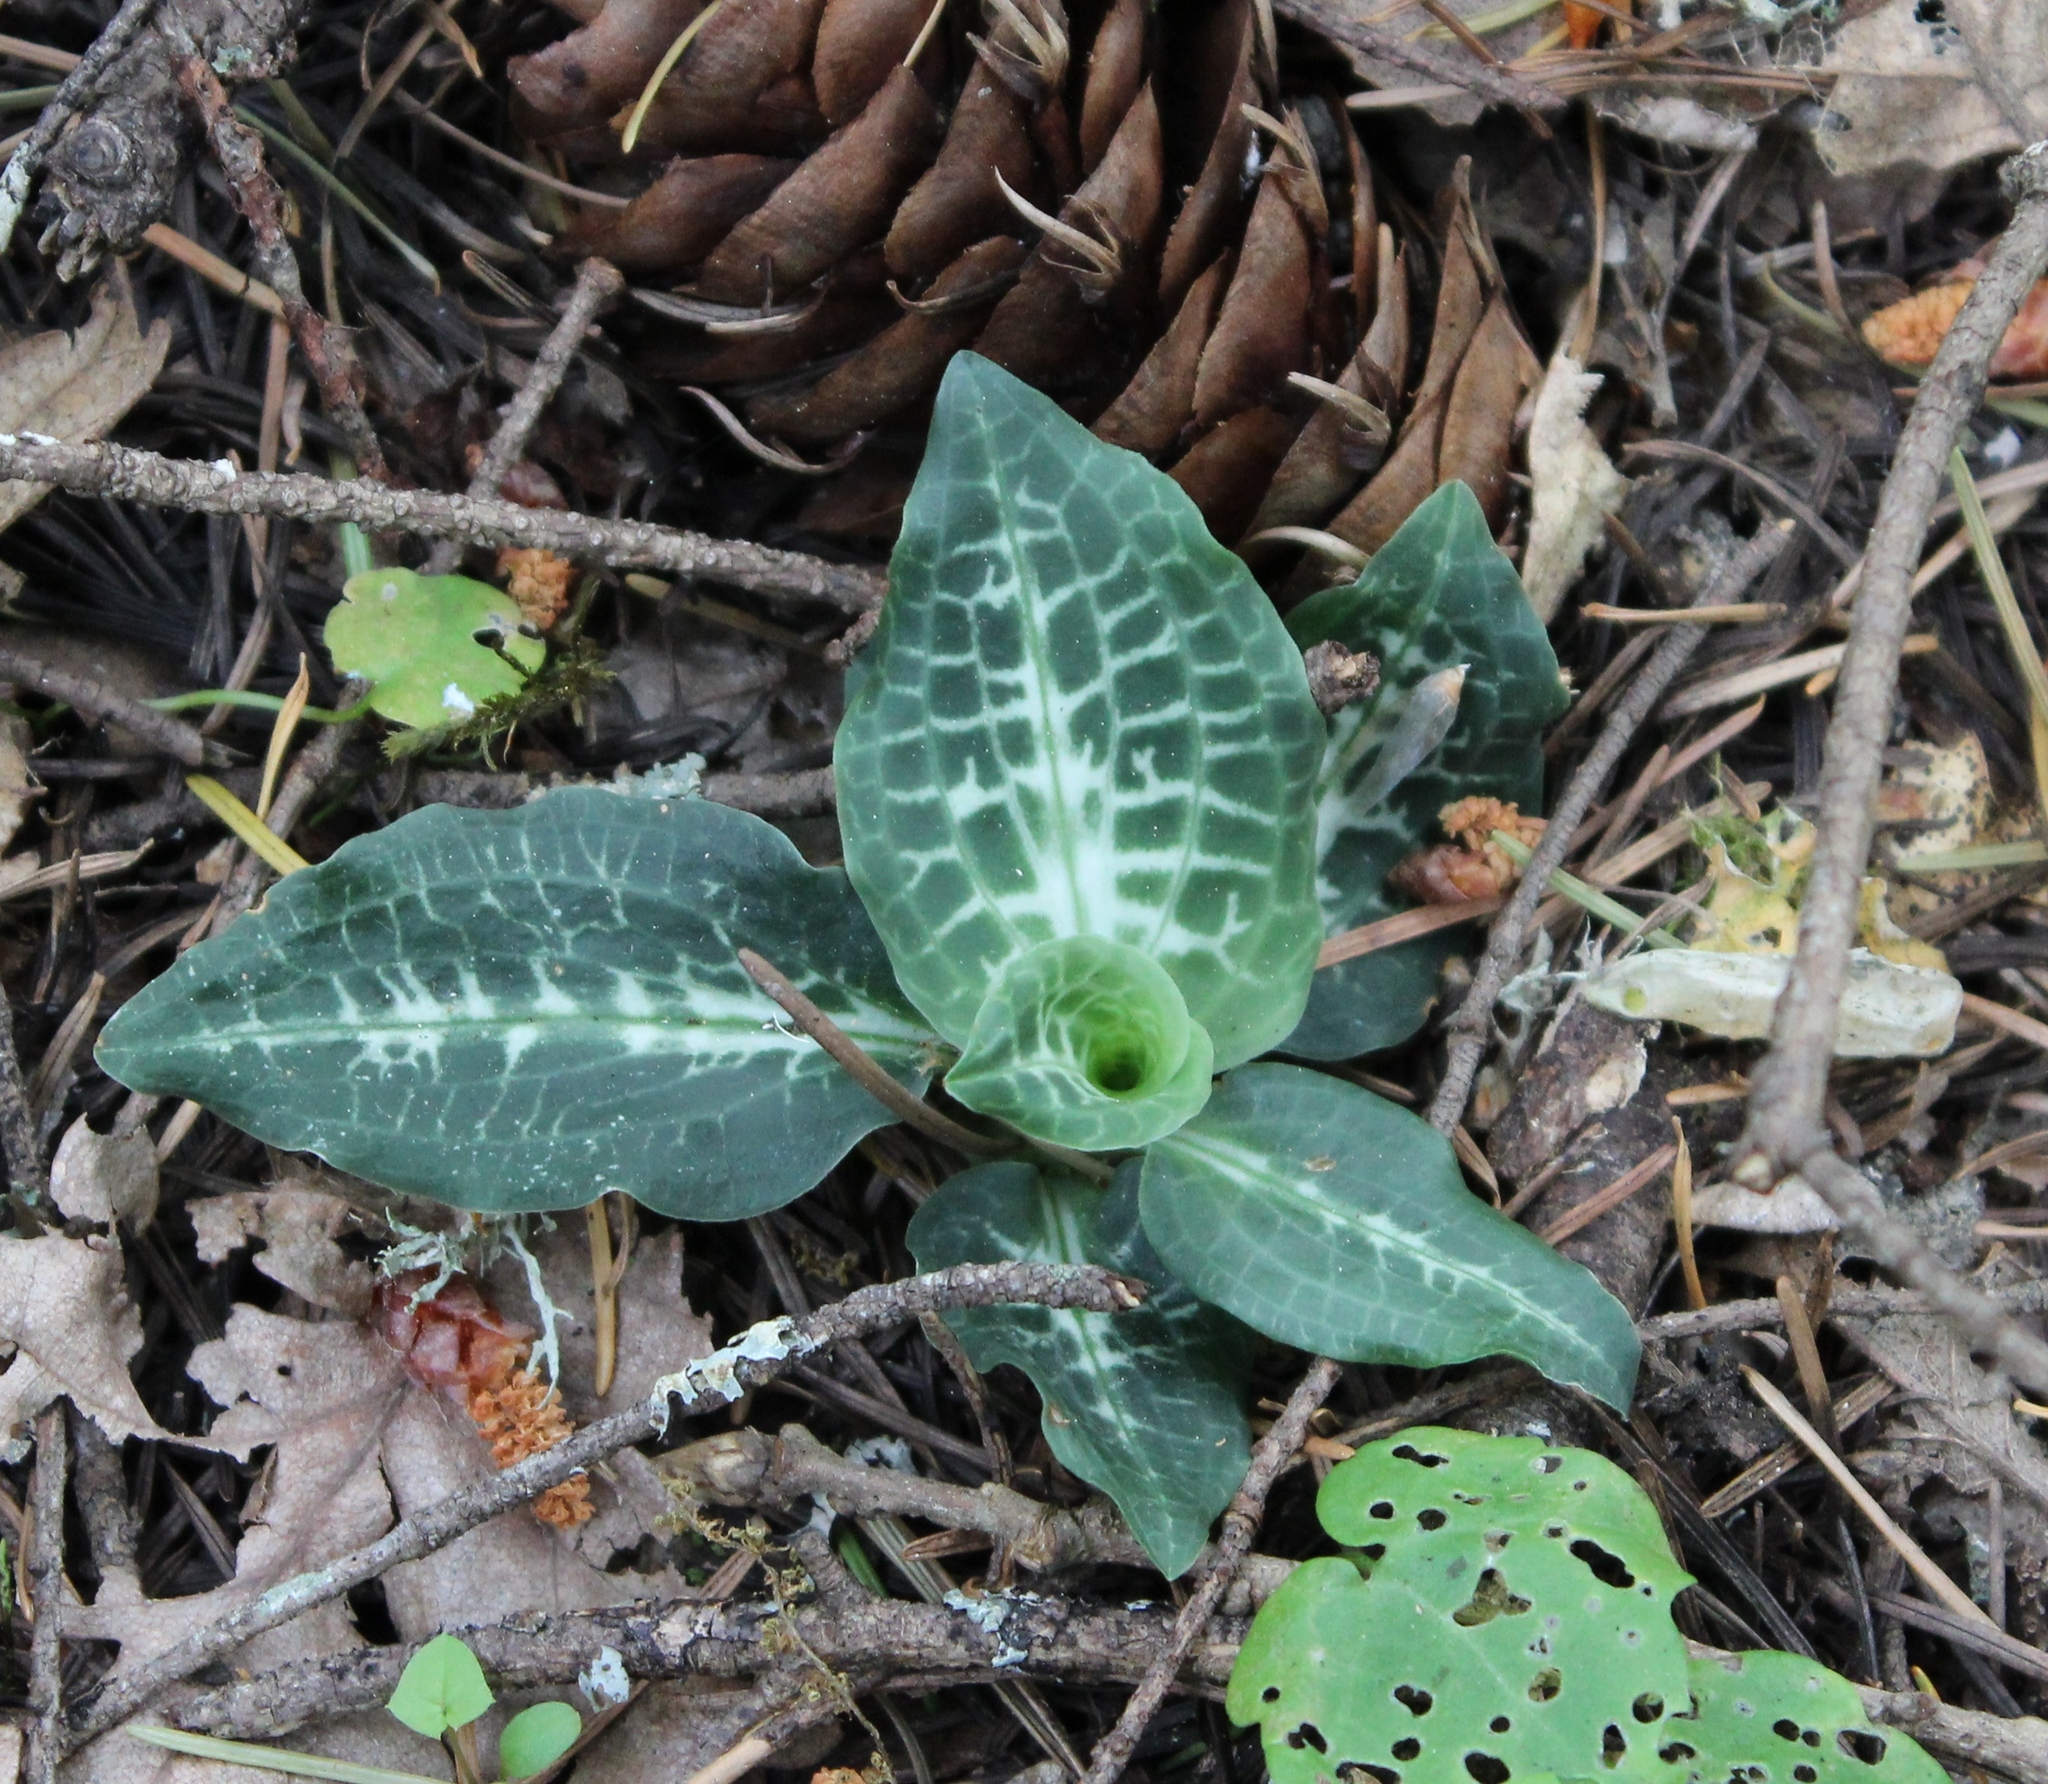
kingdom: Plantae
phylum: Tracheophyta
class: Liliopsida
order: Asparagales
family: Orchidaceae
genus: Goodyera
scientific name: Goodyera oblongifolia
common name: Giant rattlesnake-plantain
